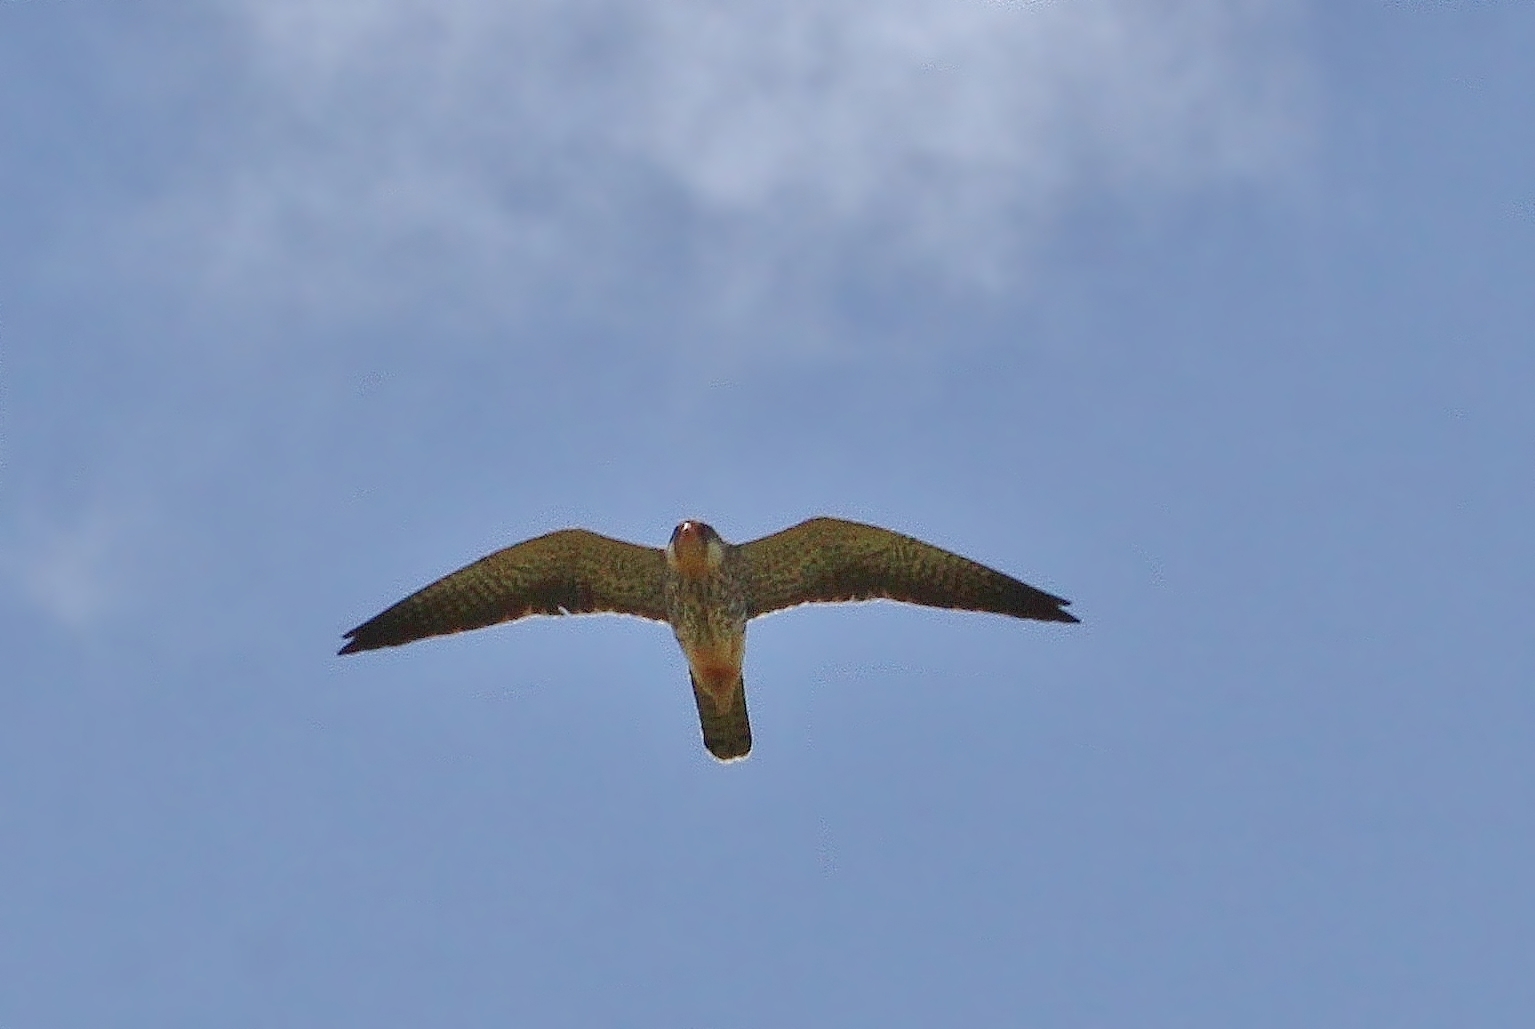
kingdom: Animalia
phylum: Chordata
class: Aves
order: Falconiformes
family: Falconidae
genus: Falco
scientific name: Falco amurensis
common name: Amur falcon
